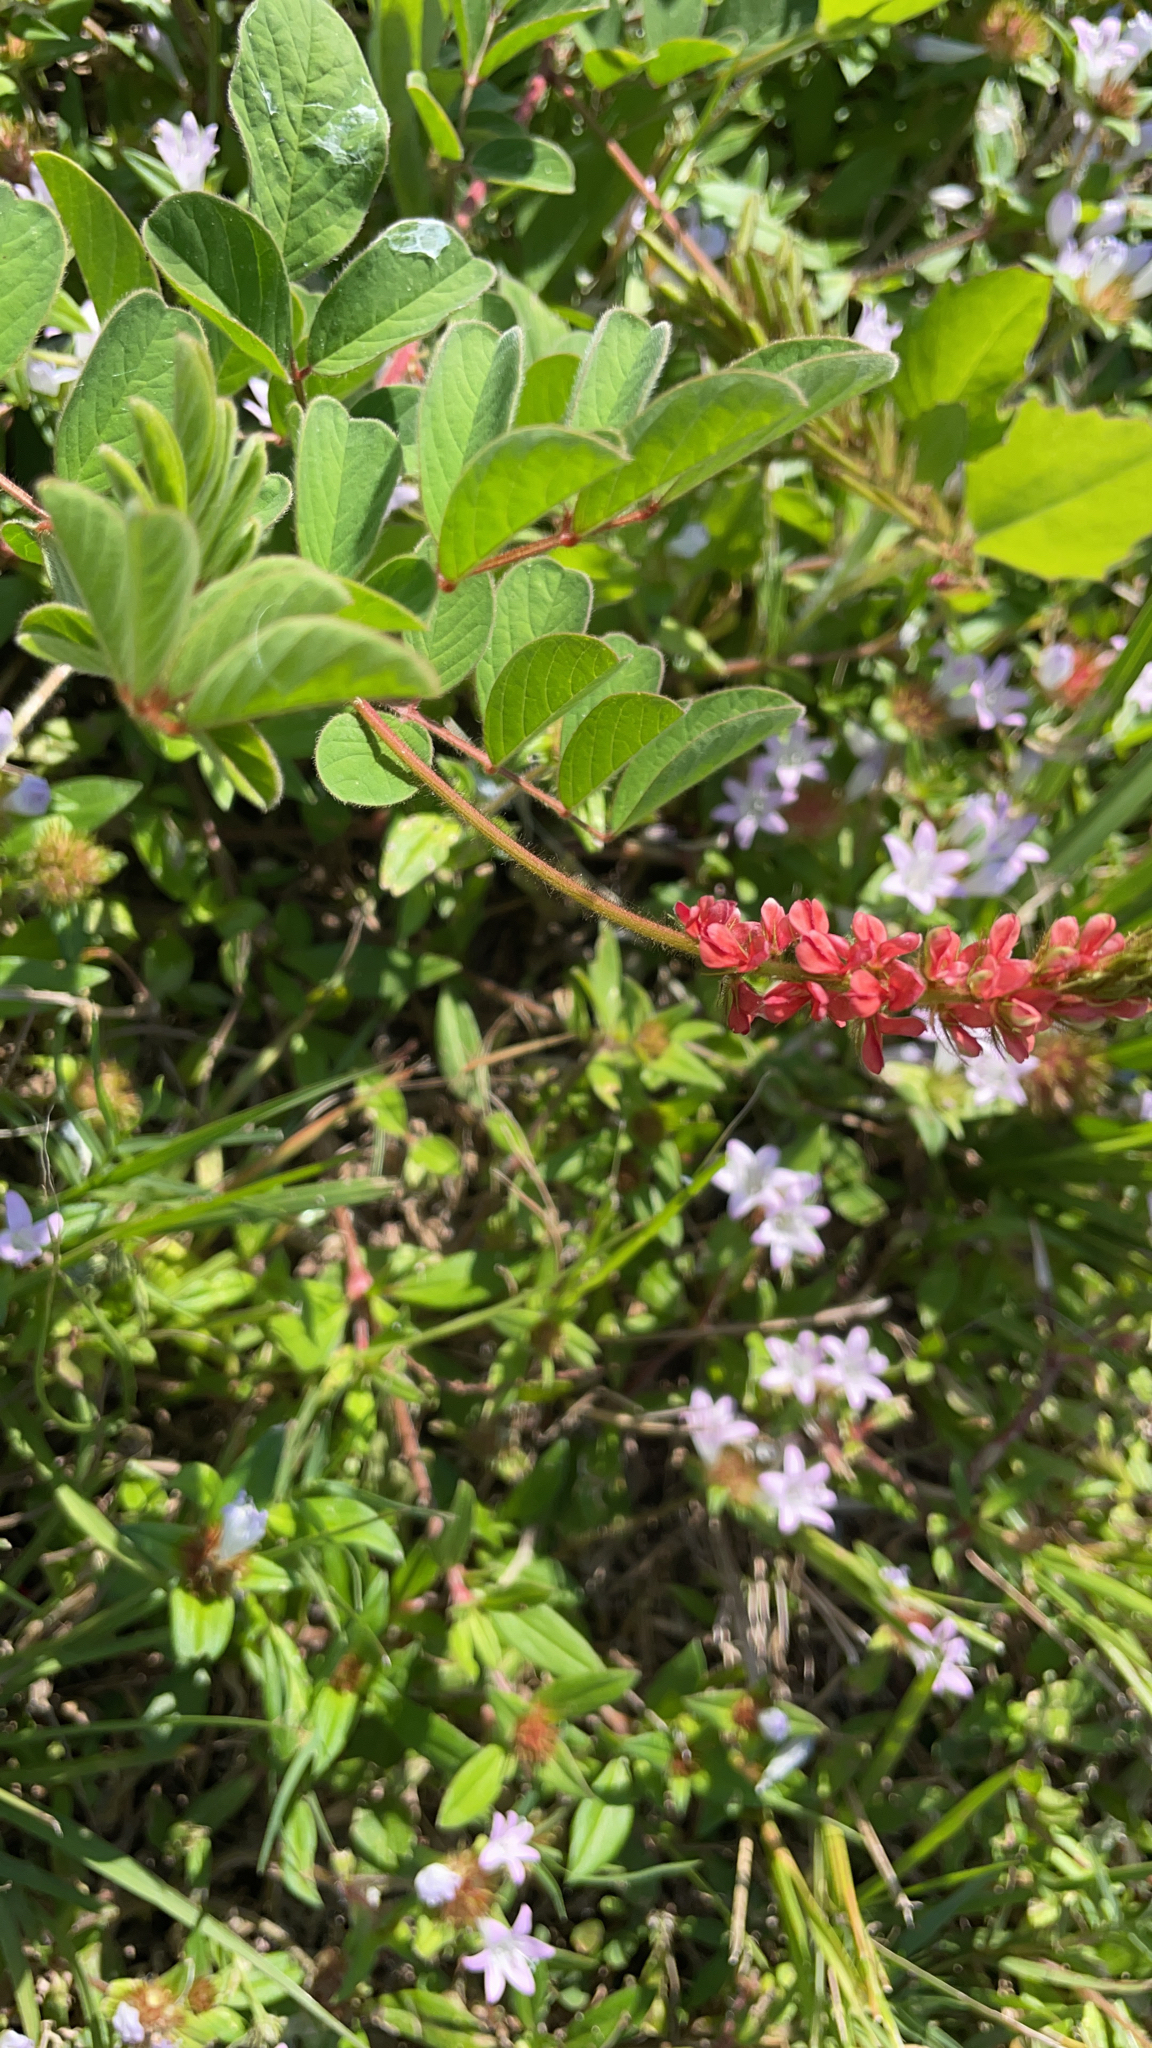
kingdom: Plantae
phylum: Tracheophyta
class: Magnoliopsida
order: Fabales
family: Fabaceae
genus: Indigofera
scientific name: Indigofera hirsuta
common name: Hairy indigo
